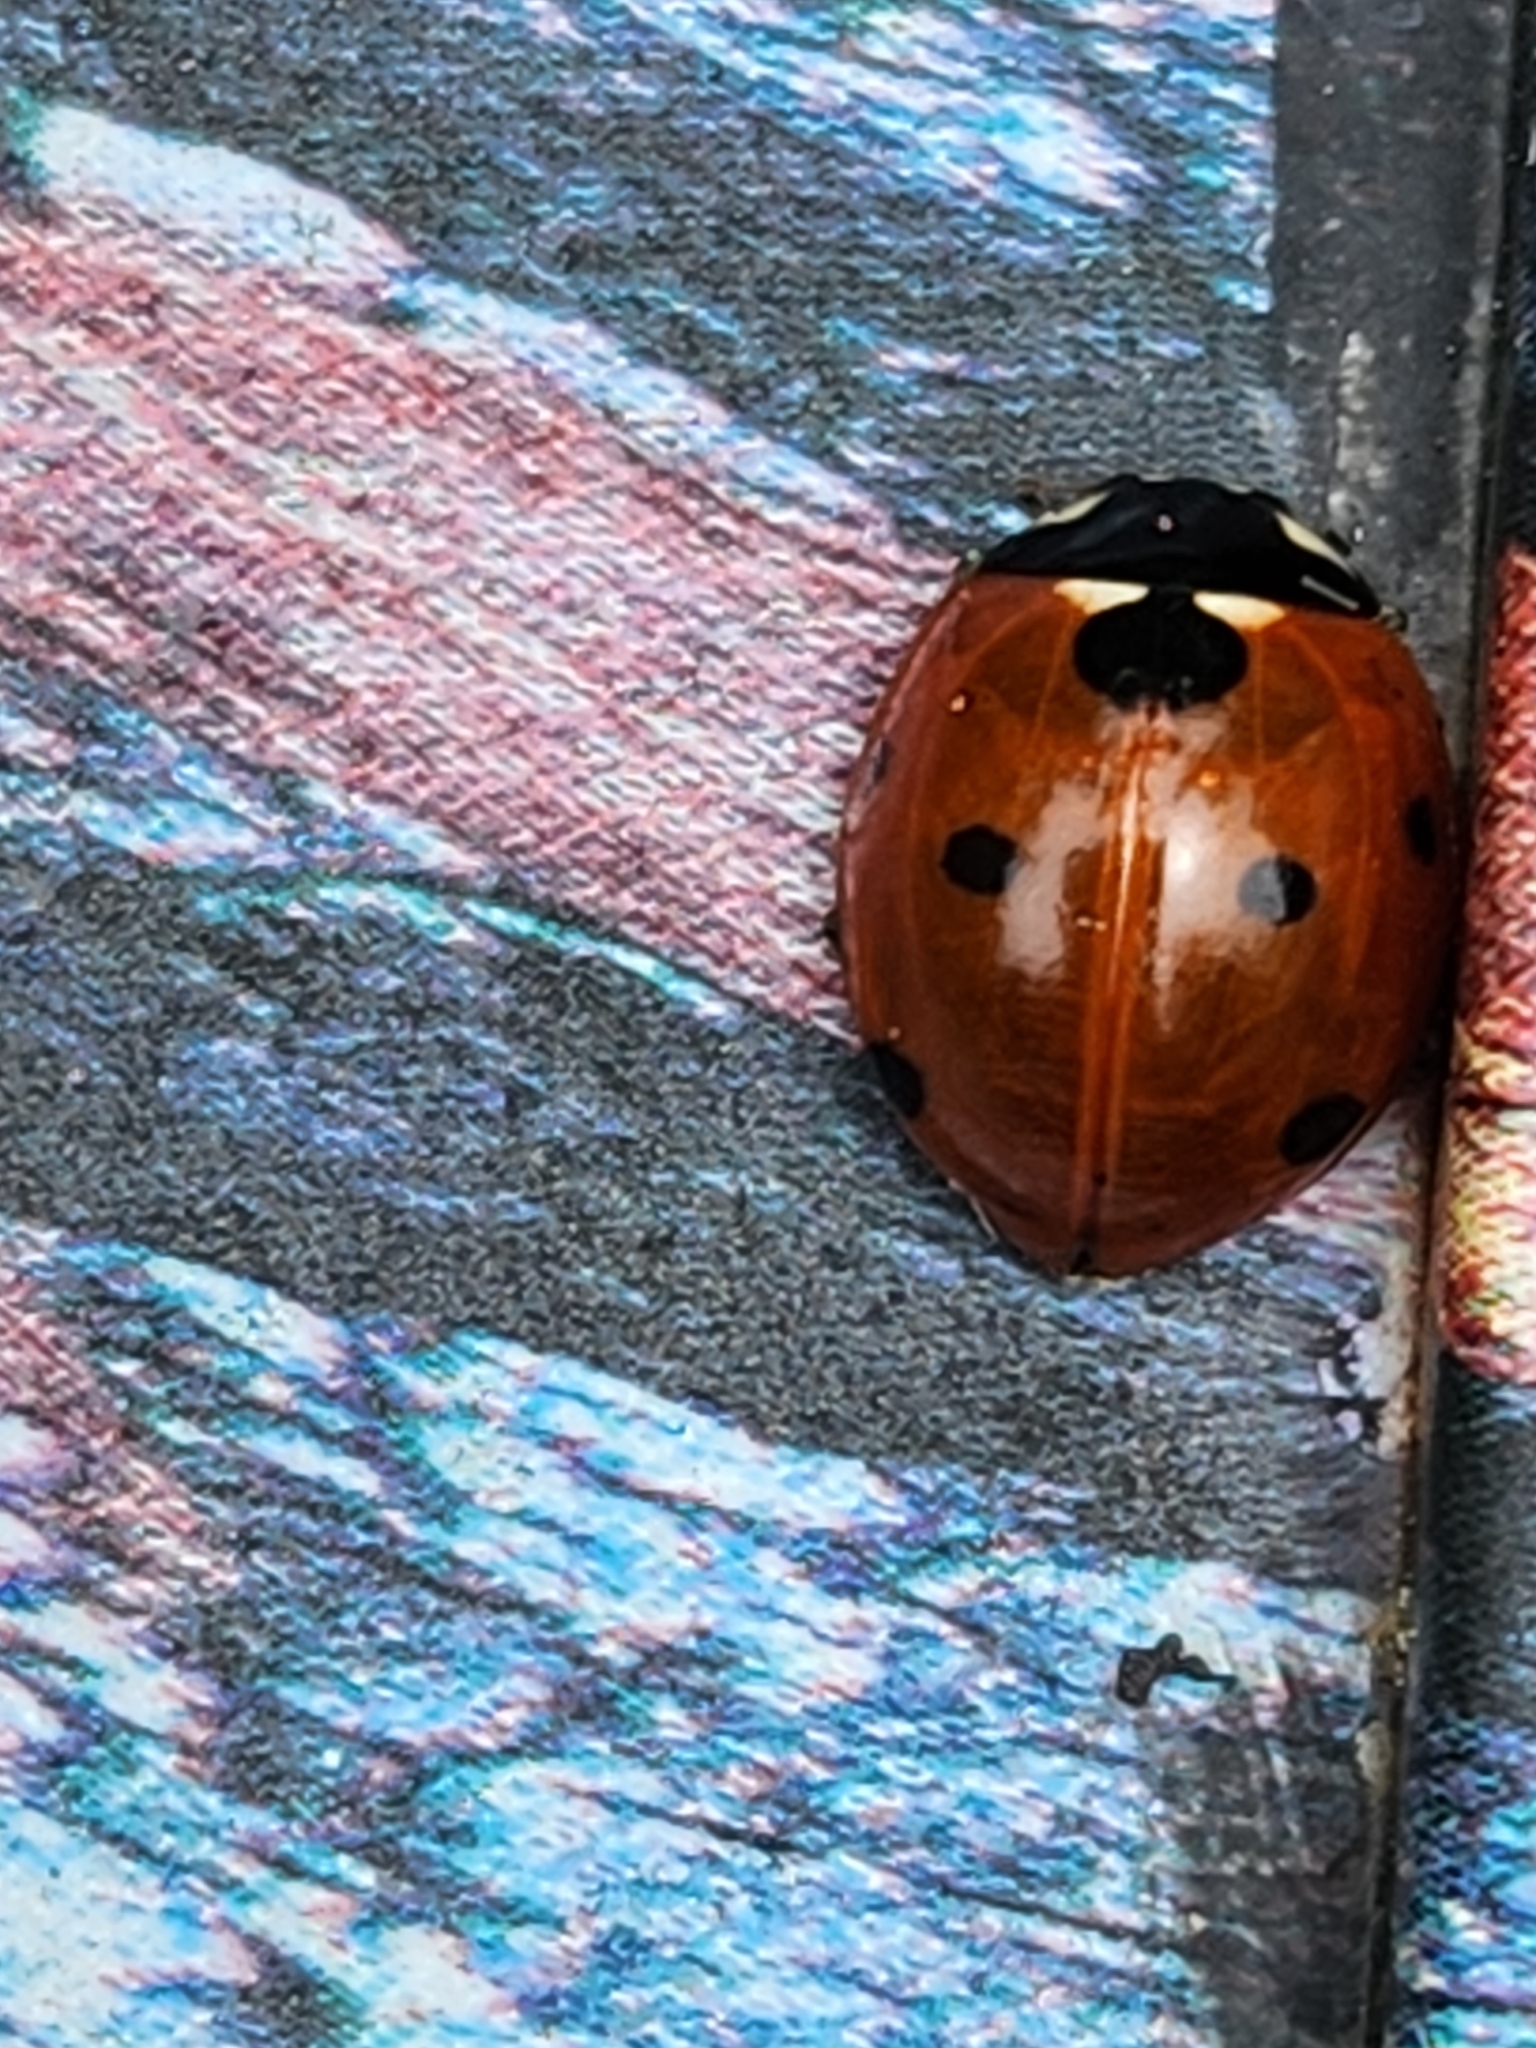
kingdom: Animalia
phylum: Arthropoda
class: Insecta
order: Coleoptera
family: Coccinellidae
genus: Coccinella
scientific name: Coccinella septempunctata
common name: Sevenspotted lady beetle
